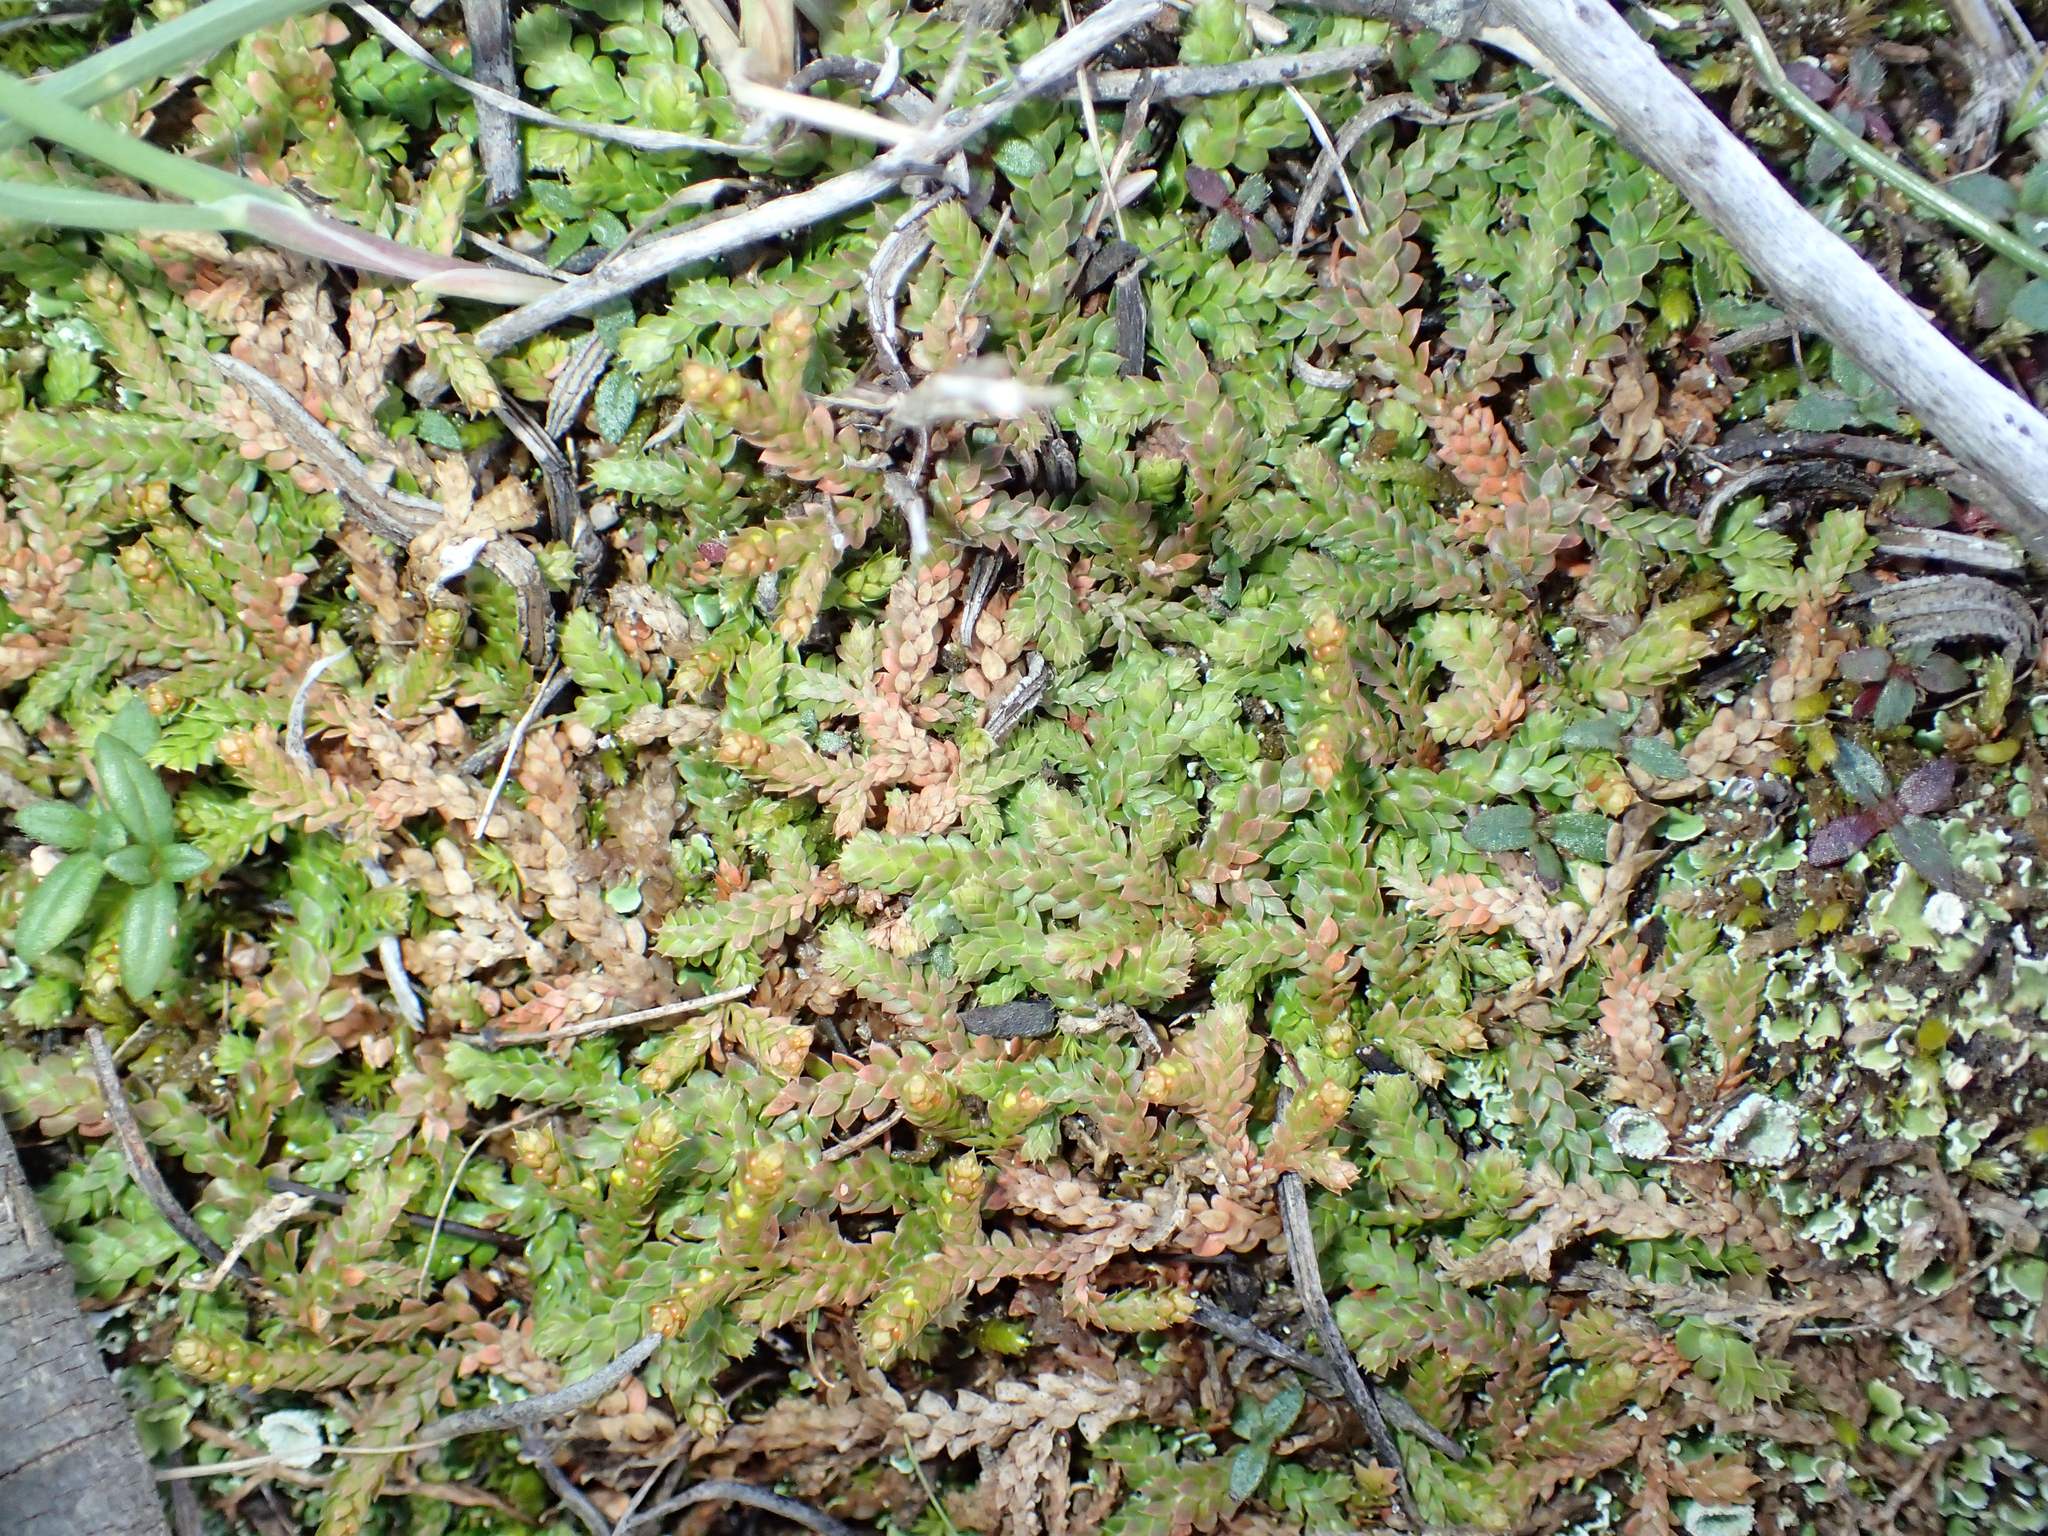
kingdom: Plantae
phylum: Tracheophyta
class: Lycopodiopsida
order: Selaginellales
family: Selaginellaceae
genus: Selaginella
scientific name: Selaginella denticulata
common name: Toothed-leaved clubmoss
